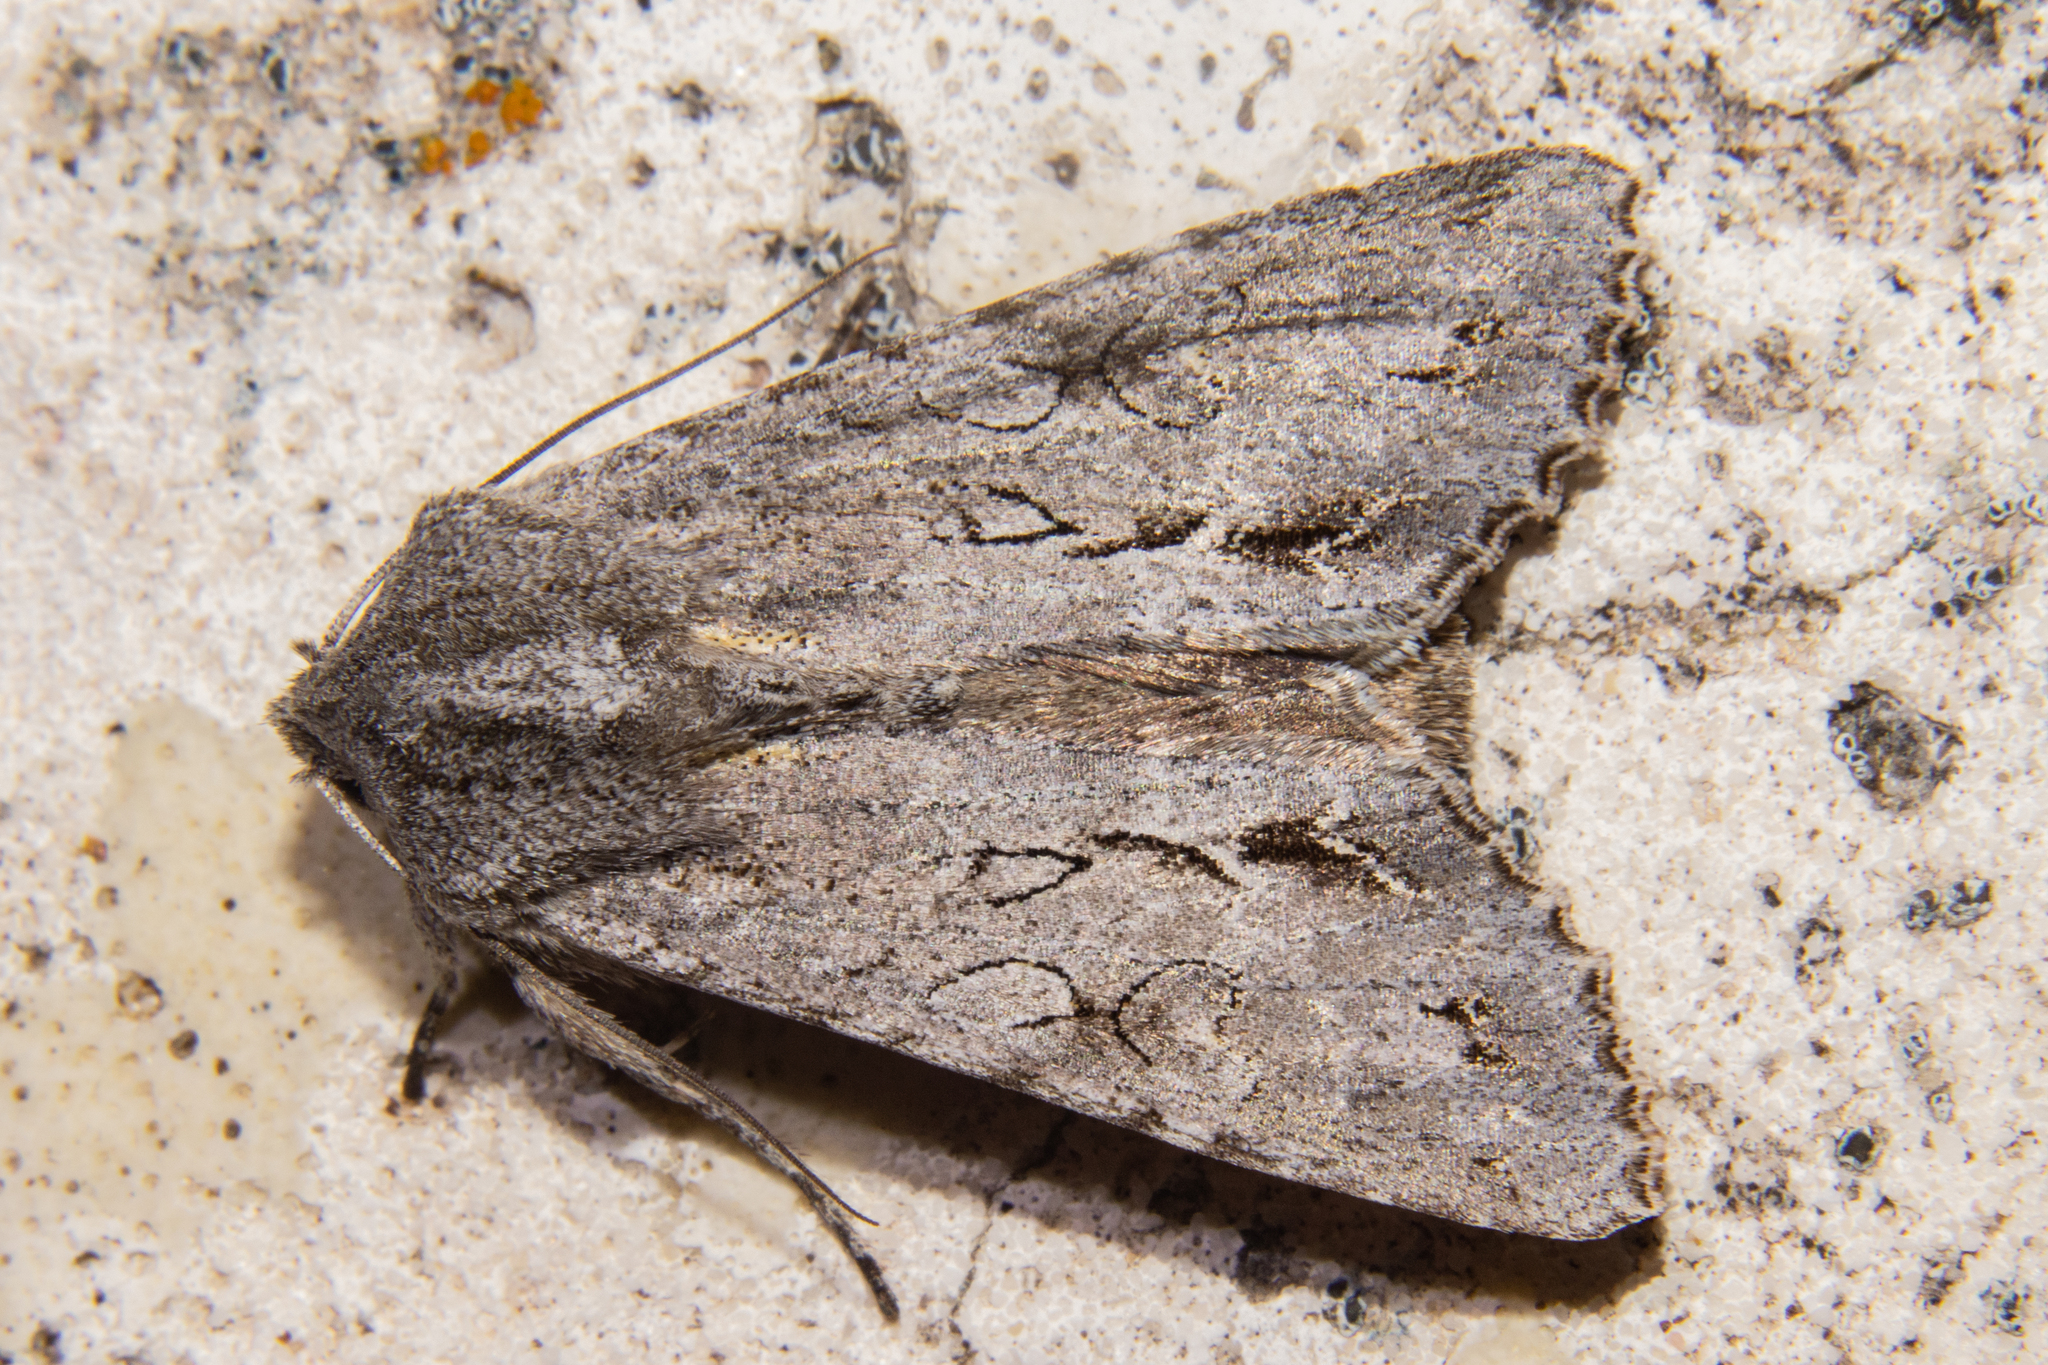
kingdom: Animalia
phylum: Arthropoda
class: Insecta
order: Lepidoptera
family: Noctuidae
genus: Ichneutica
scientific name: Ichneutica
